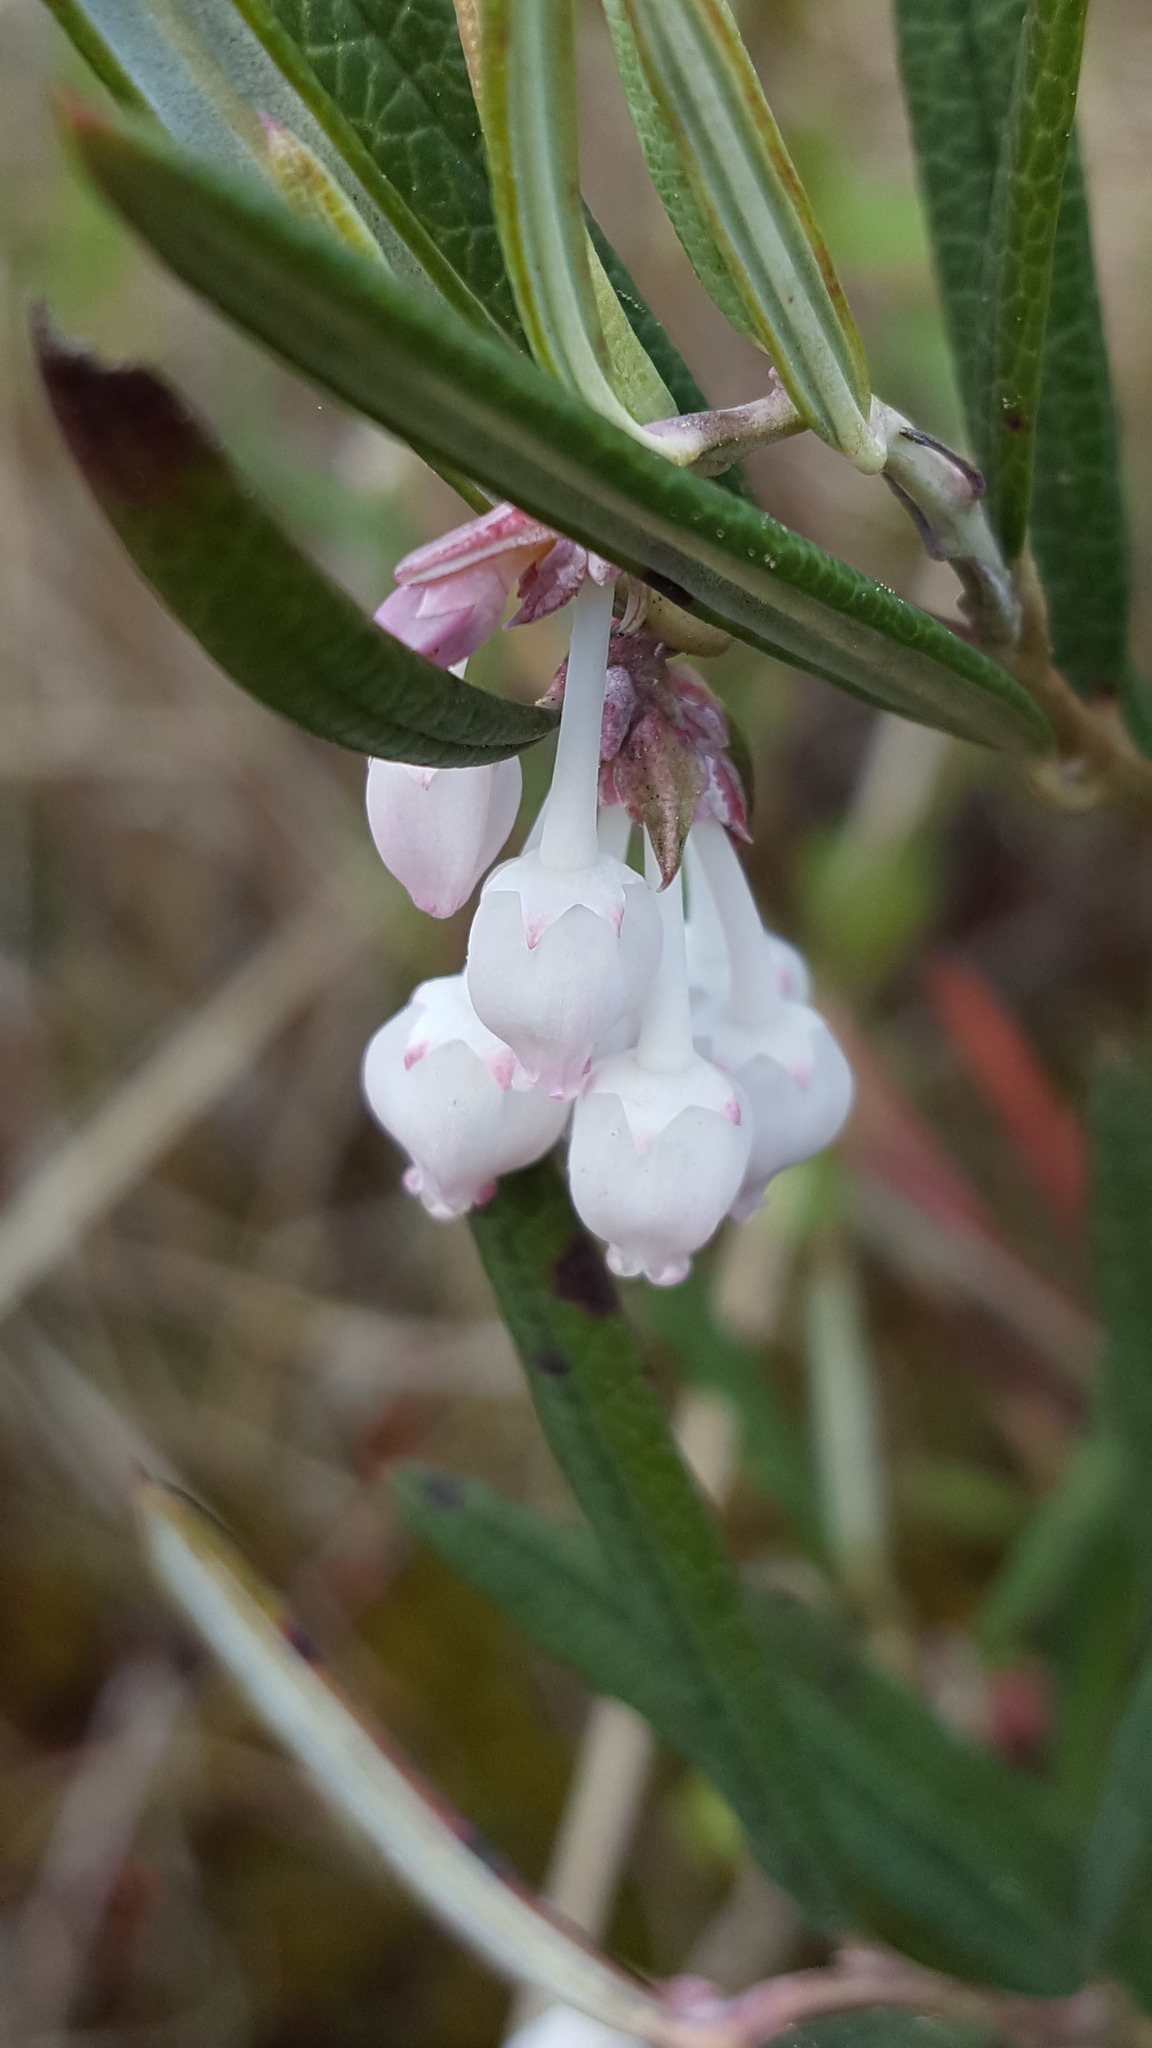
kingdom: Plantae
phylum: Tracheophyta
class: Magnoliopsida
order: Ericales
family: Ericaceae
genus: Andromeda
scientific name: Andromeda polifolia
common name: Bog-rosemary
